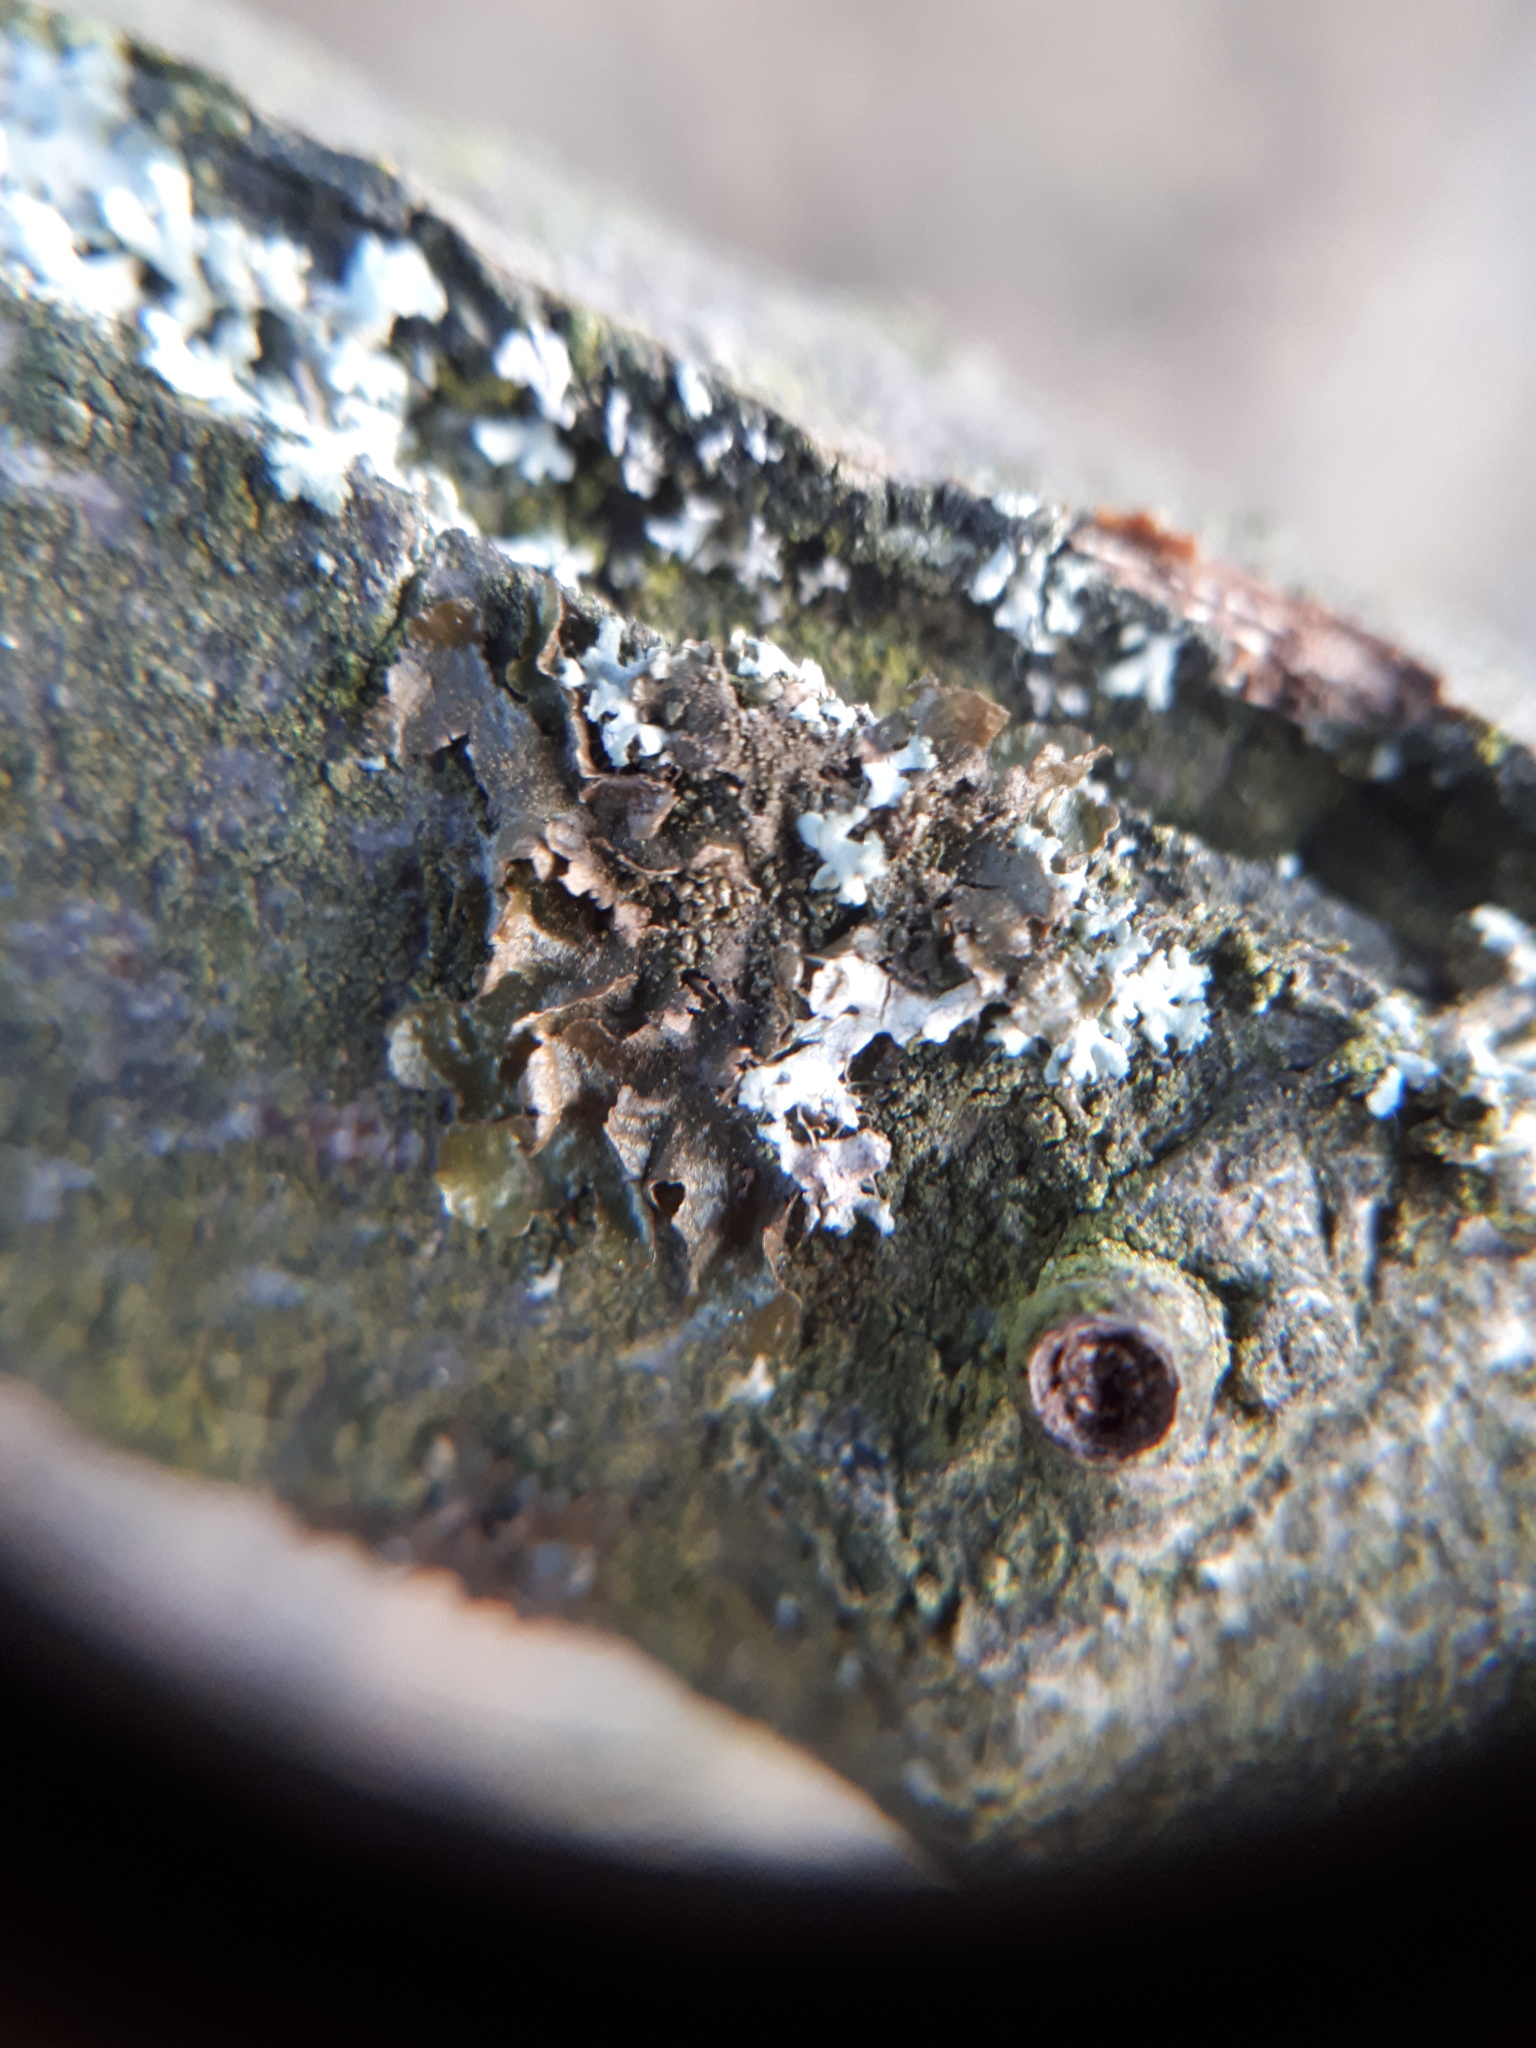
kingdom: Fungi
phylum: Ascomycota
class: Lecanoromycetes
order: Lecanorales
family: Parmeliaceae
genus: Melanohalea
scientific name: Melanohalea exasperatula
